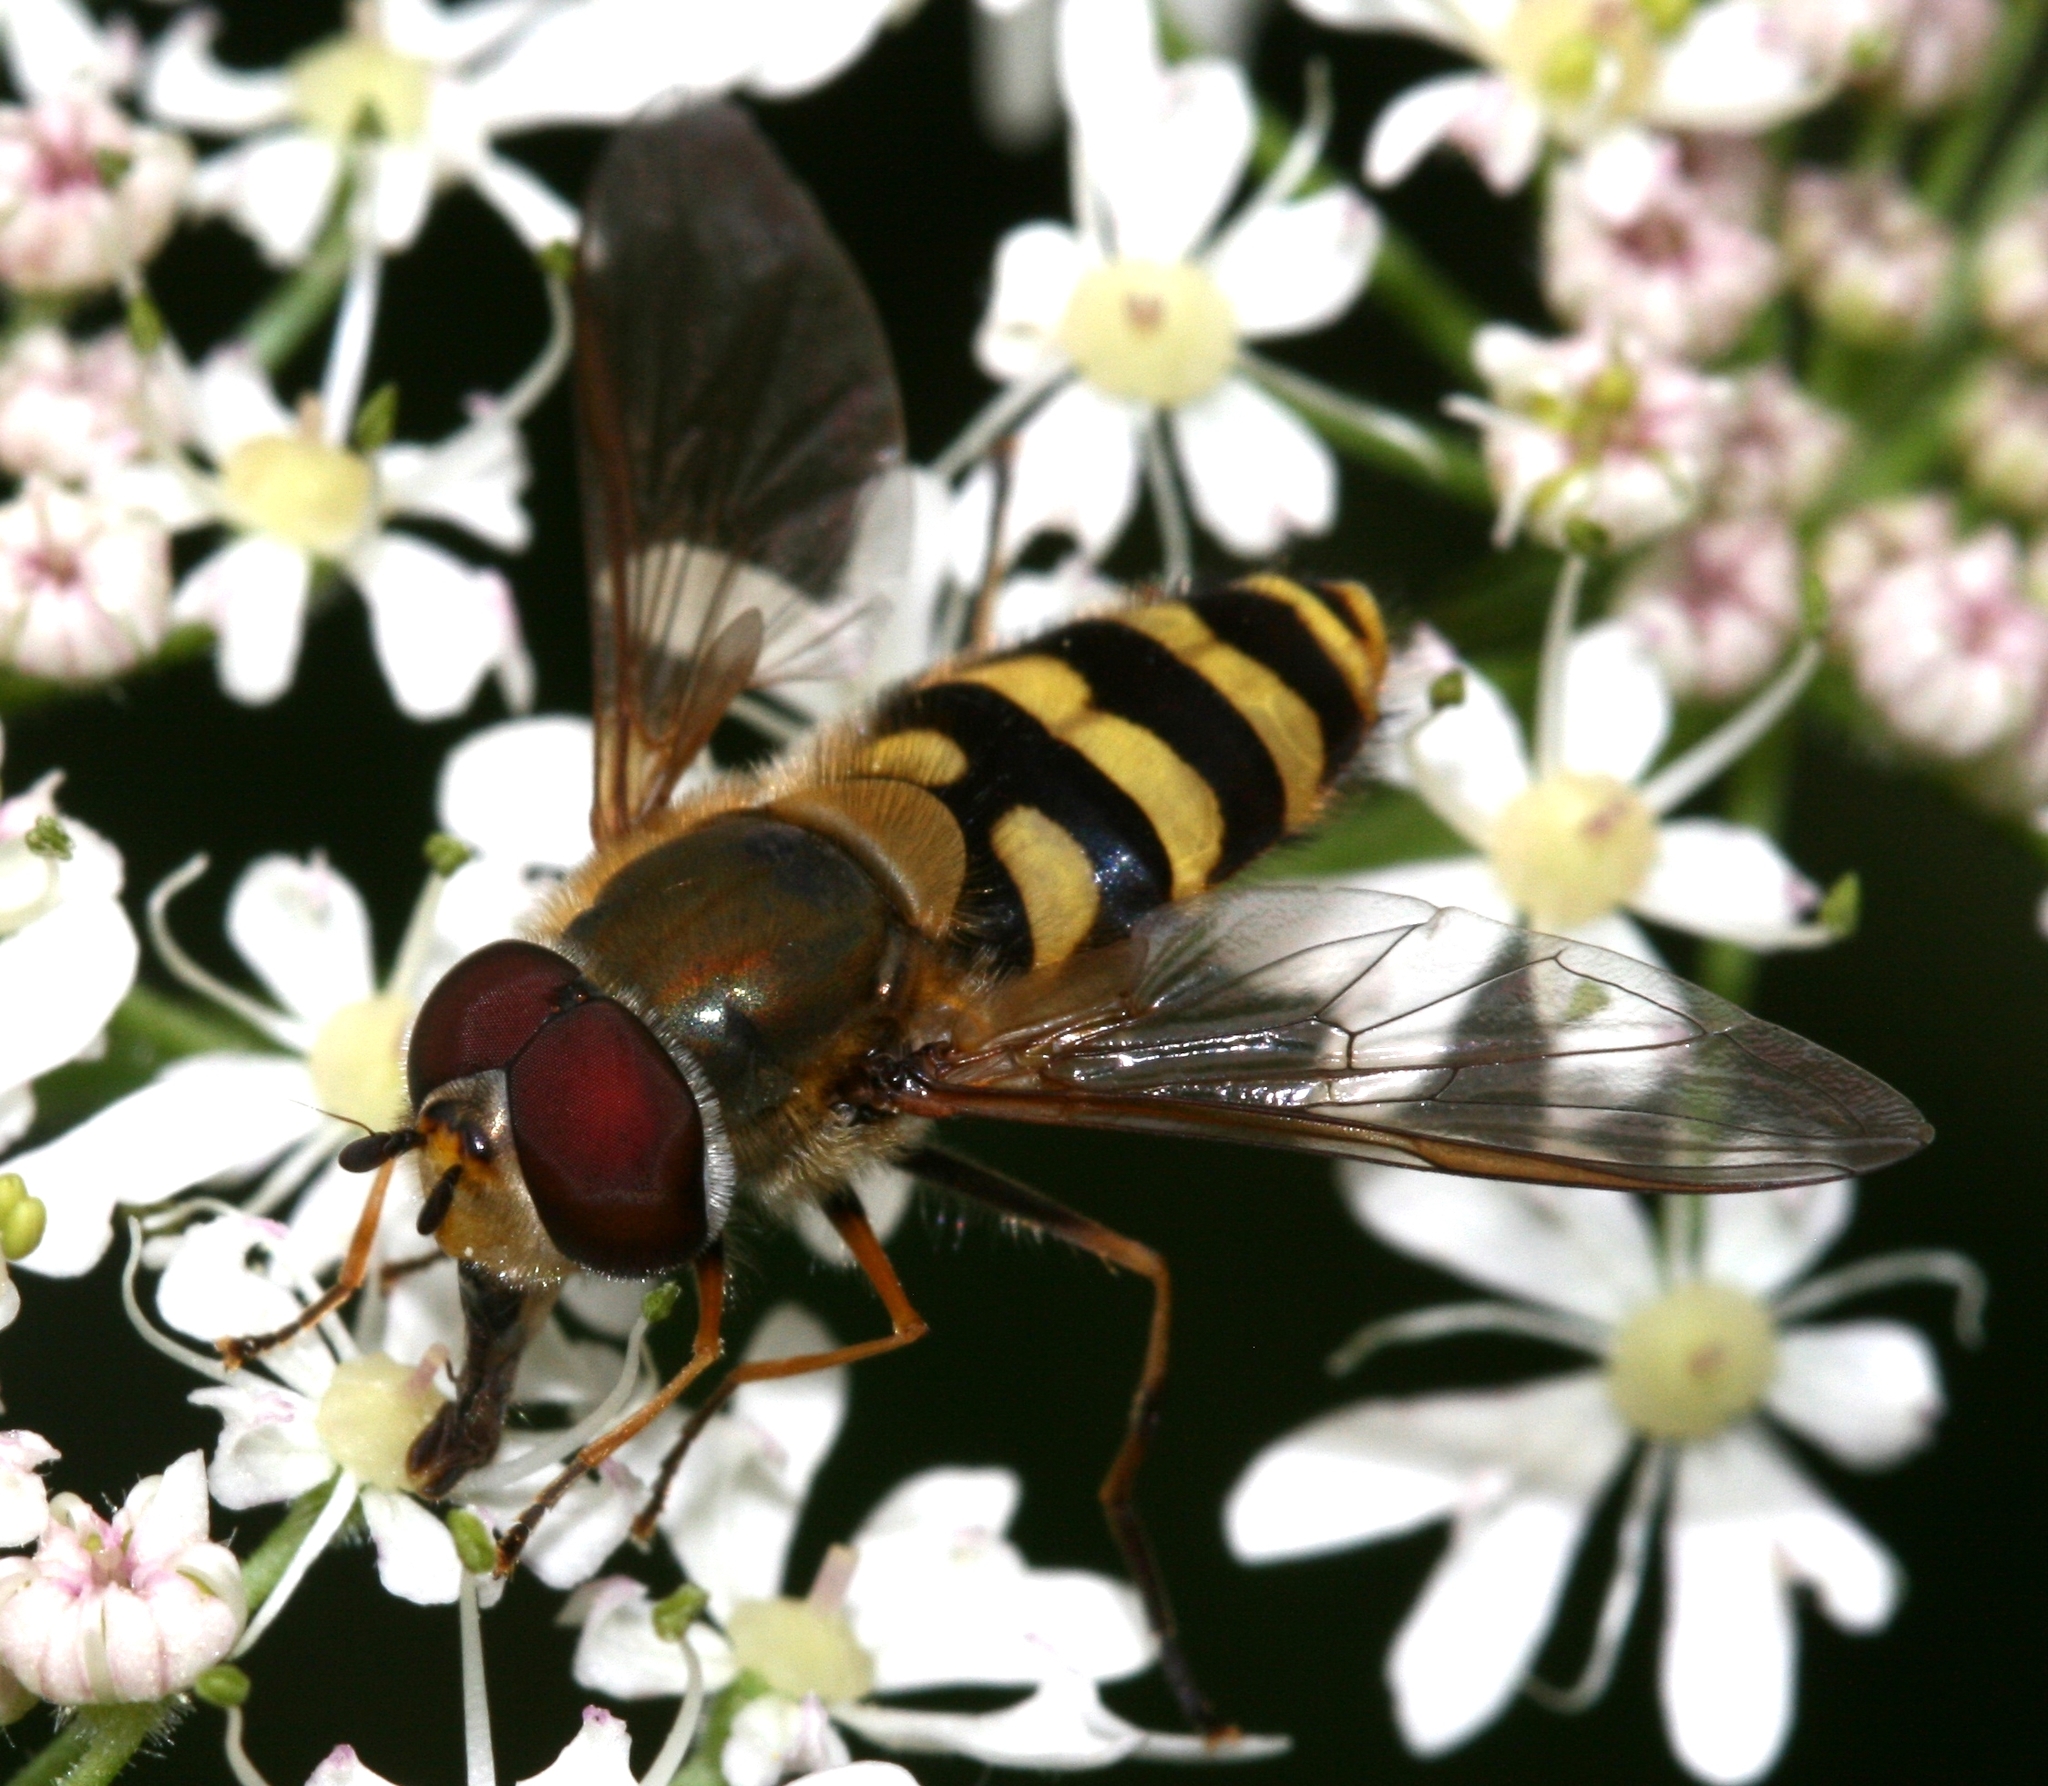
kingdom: Animalia
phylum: Arthropoda
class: Insecta
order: Diptera
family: Syrphidae
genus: Syrphus
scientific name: Syrphus torvus
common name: Hairy-eyed flower fly
